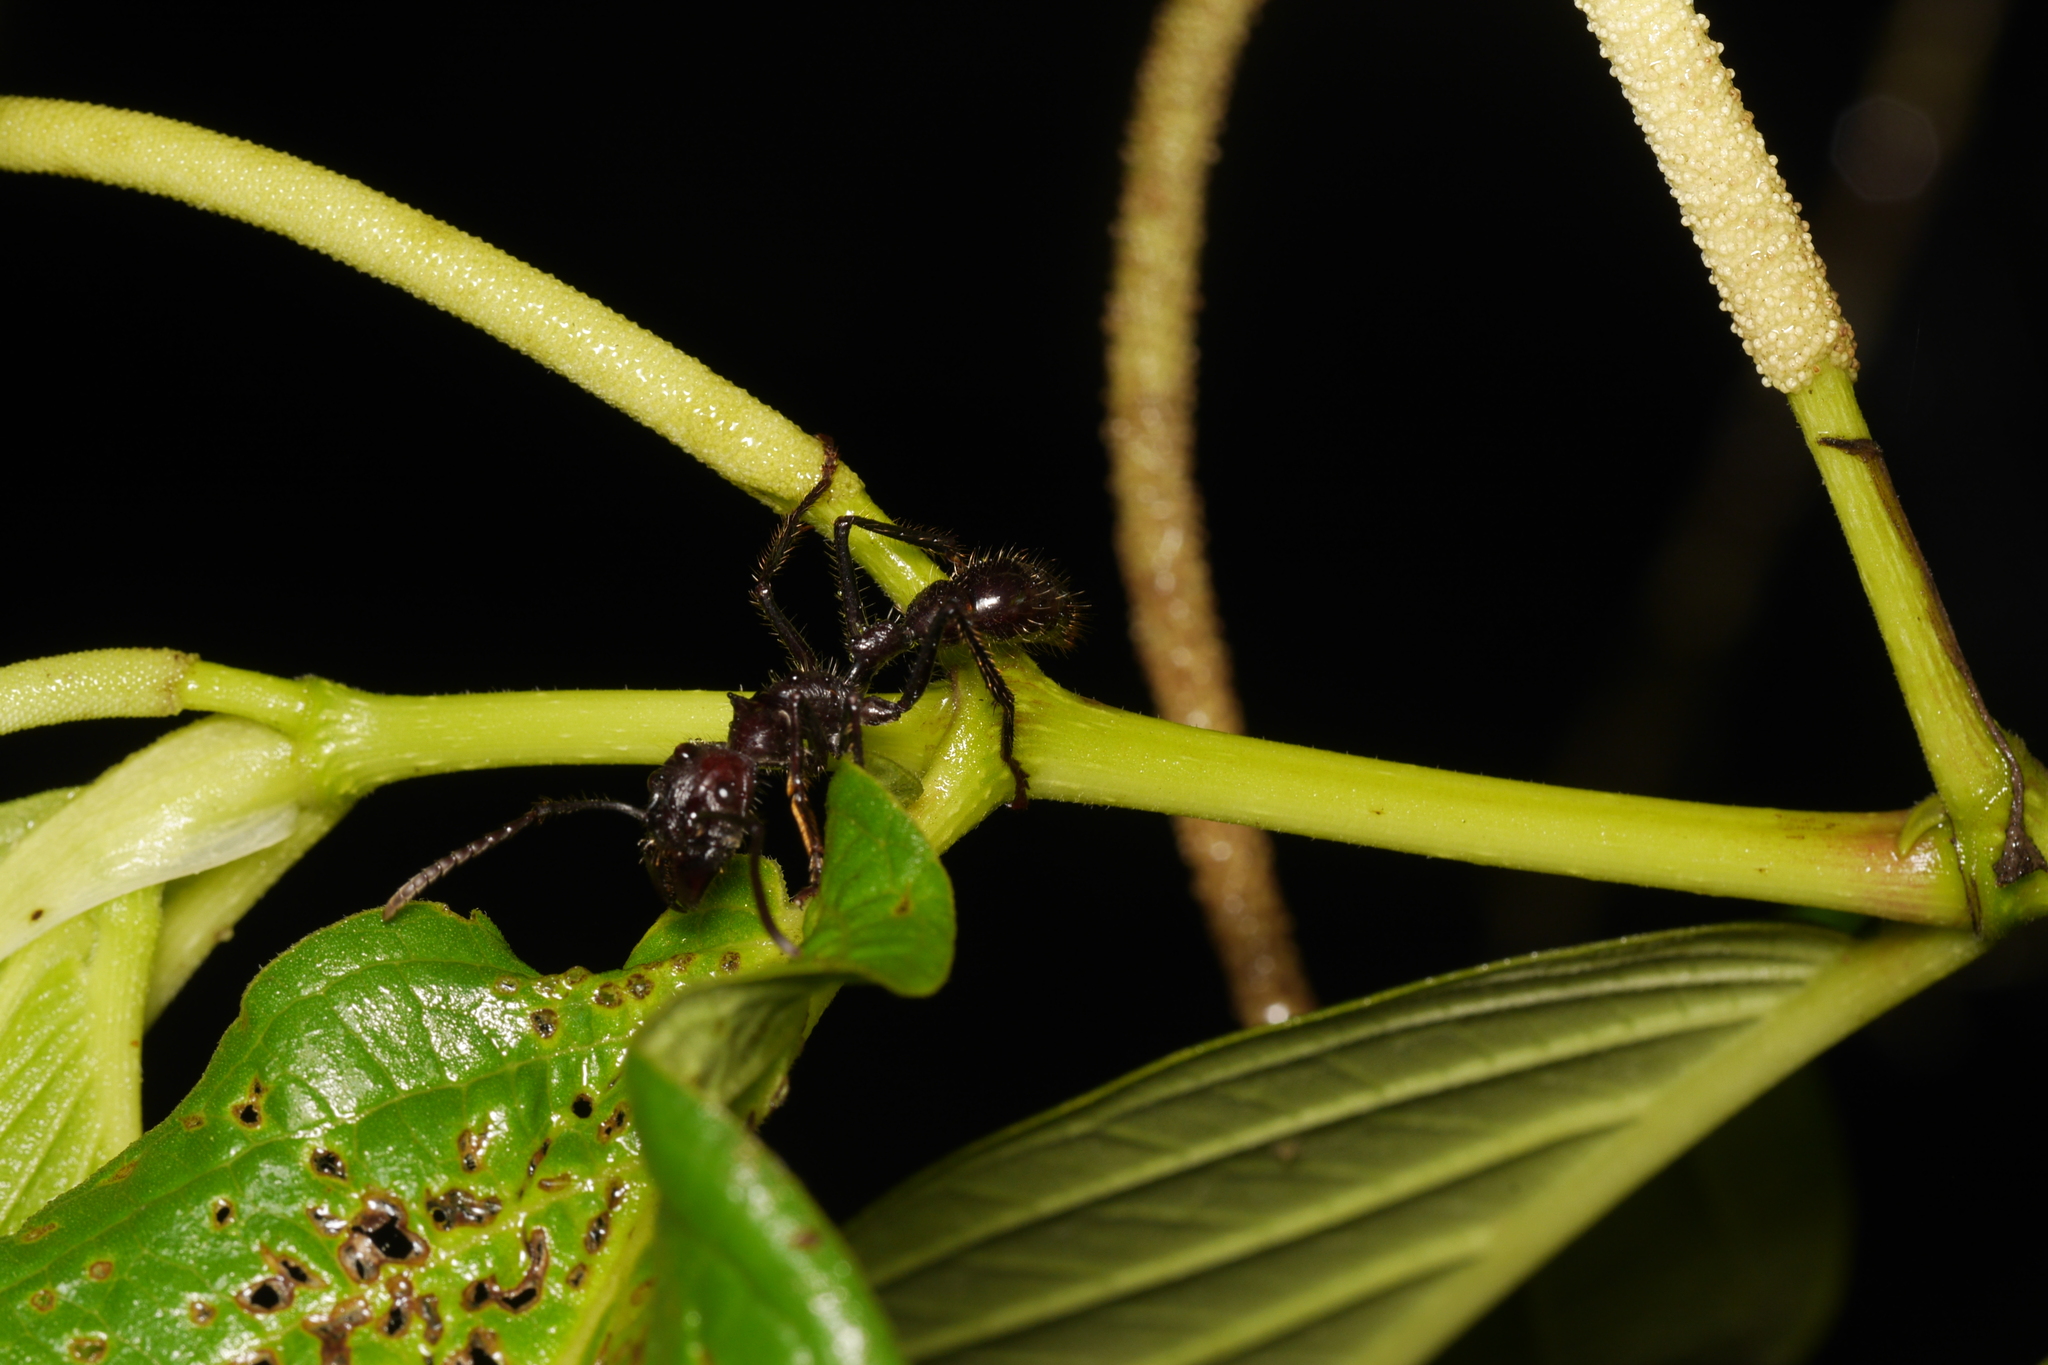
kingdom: Animalia
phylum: Arthropoda
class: Insecta
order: Hymenoptera
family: Formicidae
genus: Paraponera
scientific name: Paraponera clavata
